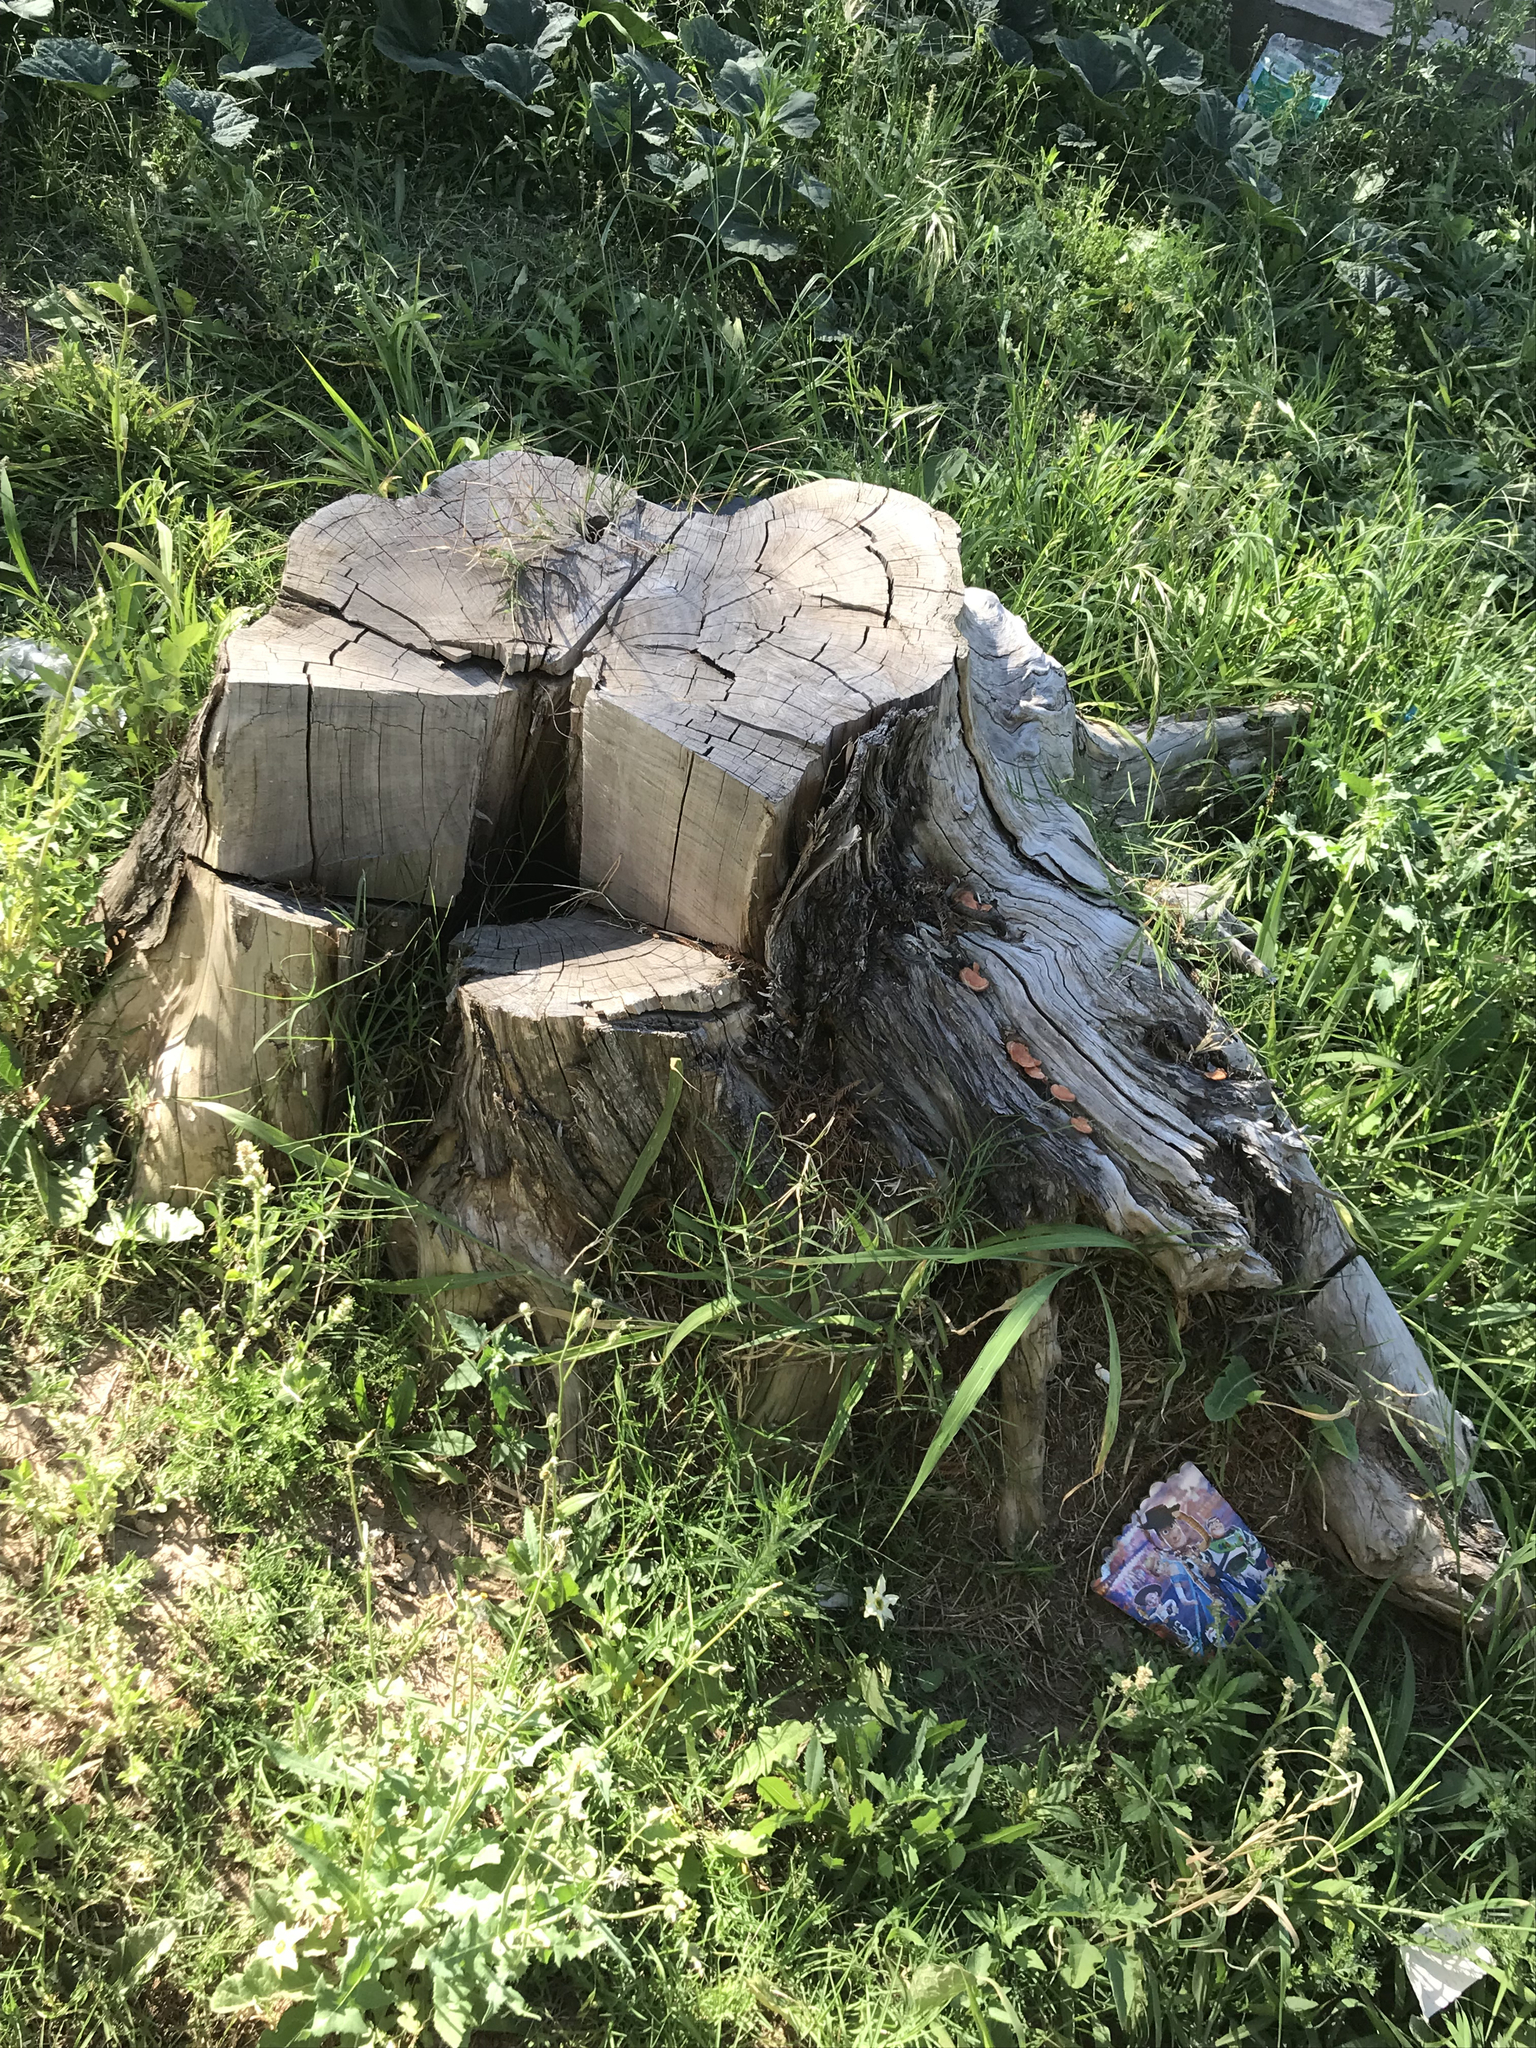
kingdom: Fungi
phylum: Basidiomycota
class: Agaricomycetes
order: Polyporales
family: Polyporaceae
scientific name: Polyporaceae
